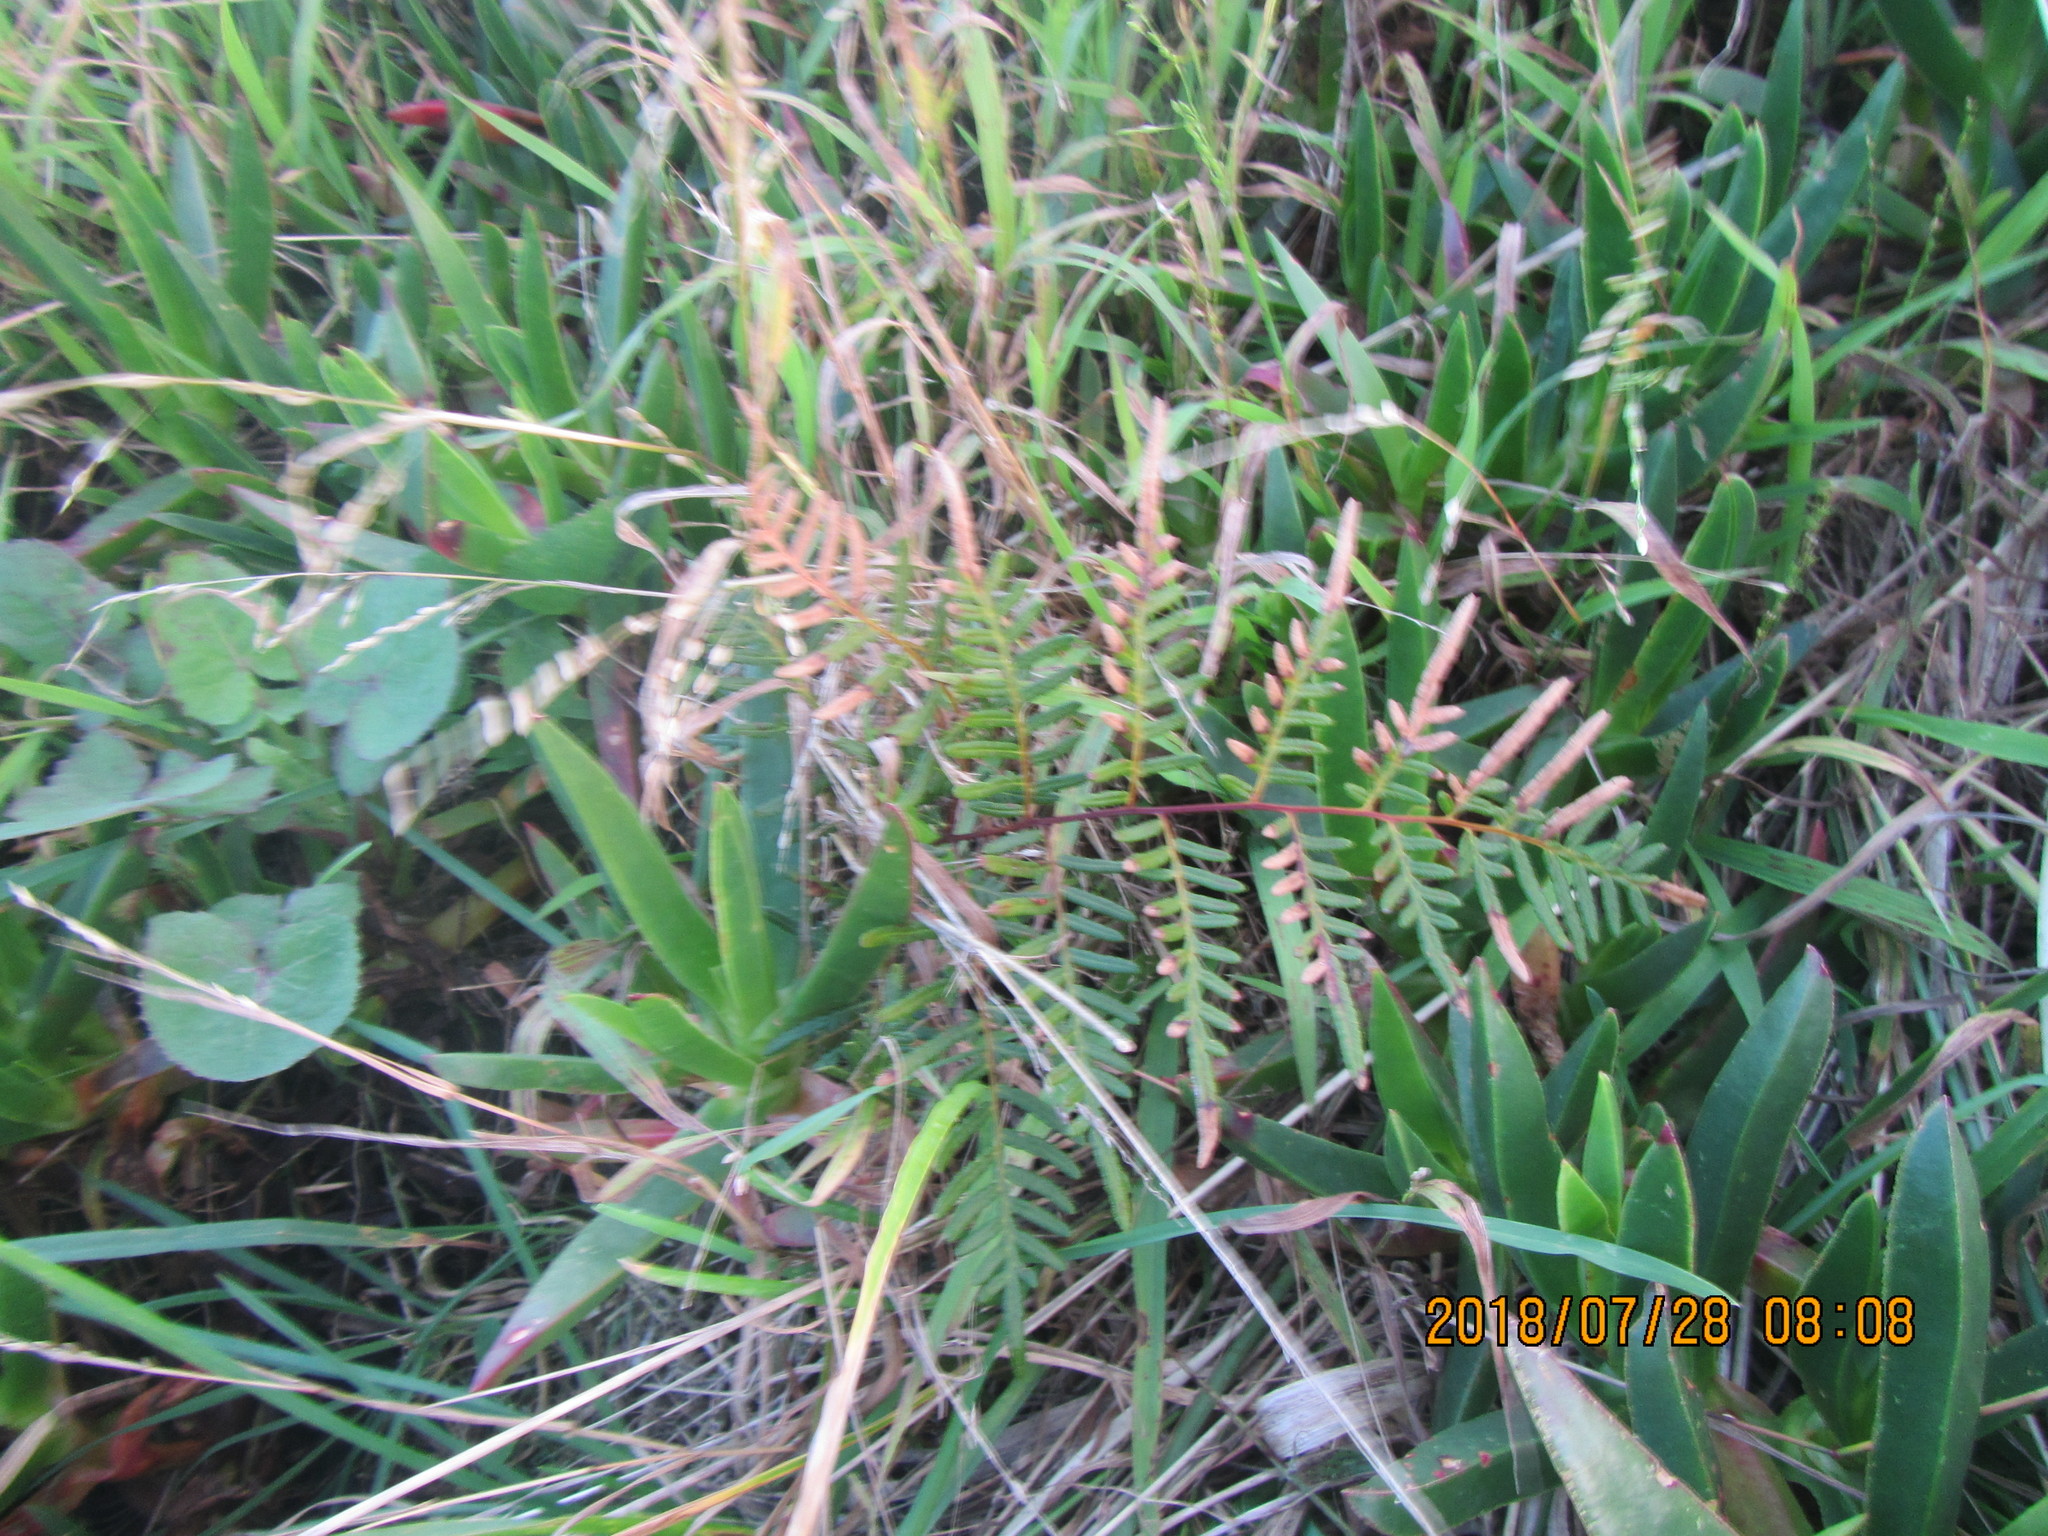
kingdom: Plantae
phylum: Tracheophyta
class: Polypodiopsida
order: Polypodiales
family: Dennstaedtiaceae
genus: Pteridium
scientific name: Pteridium esculentum
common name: Bracken fern
